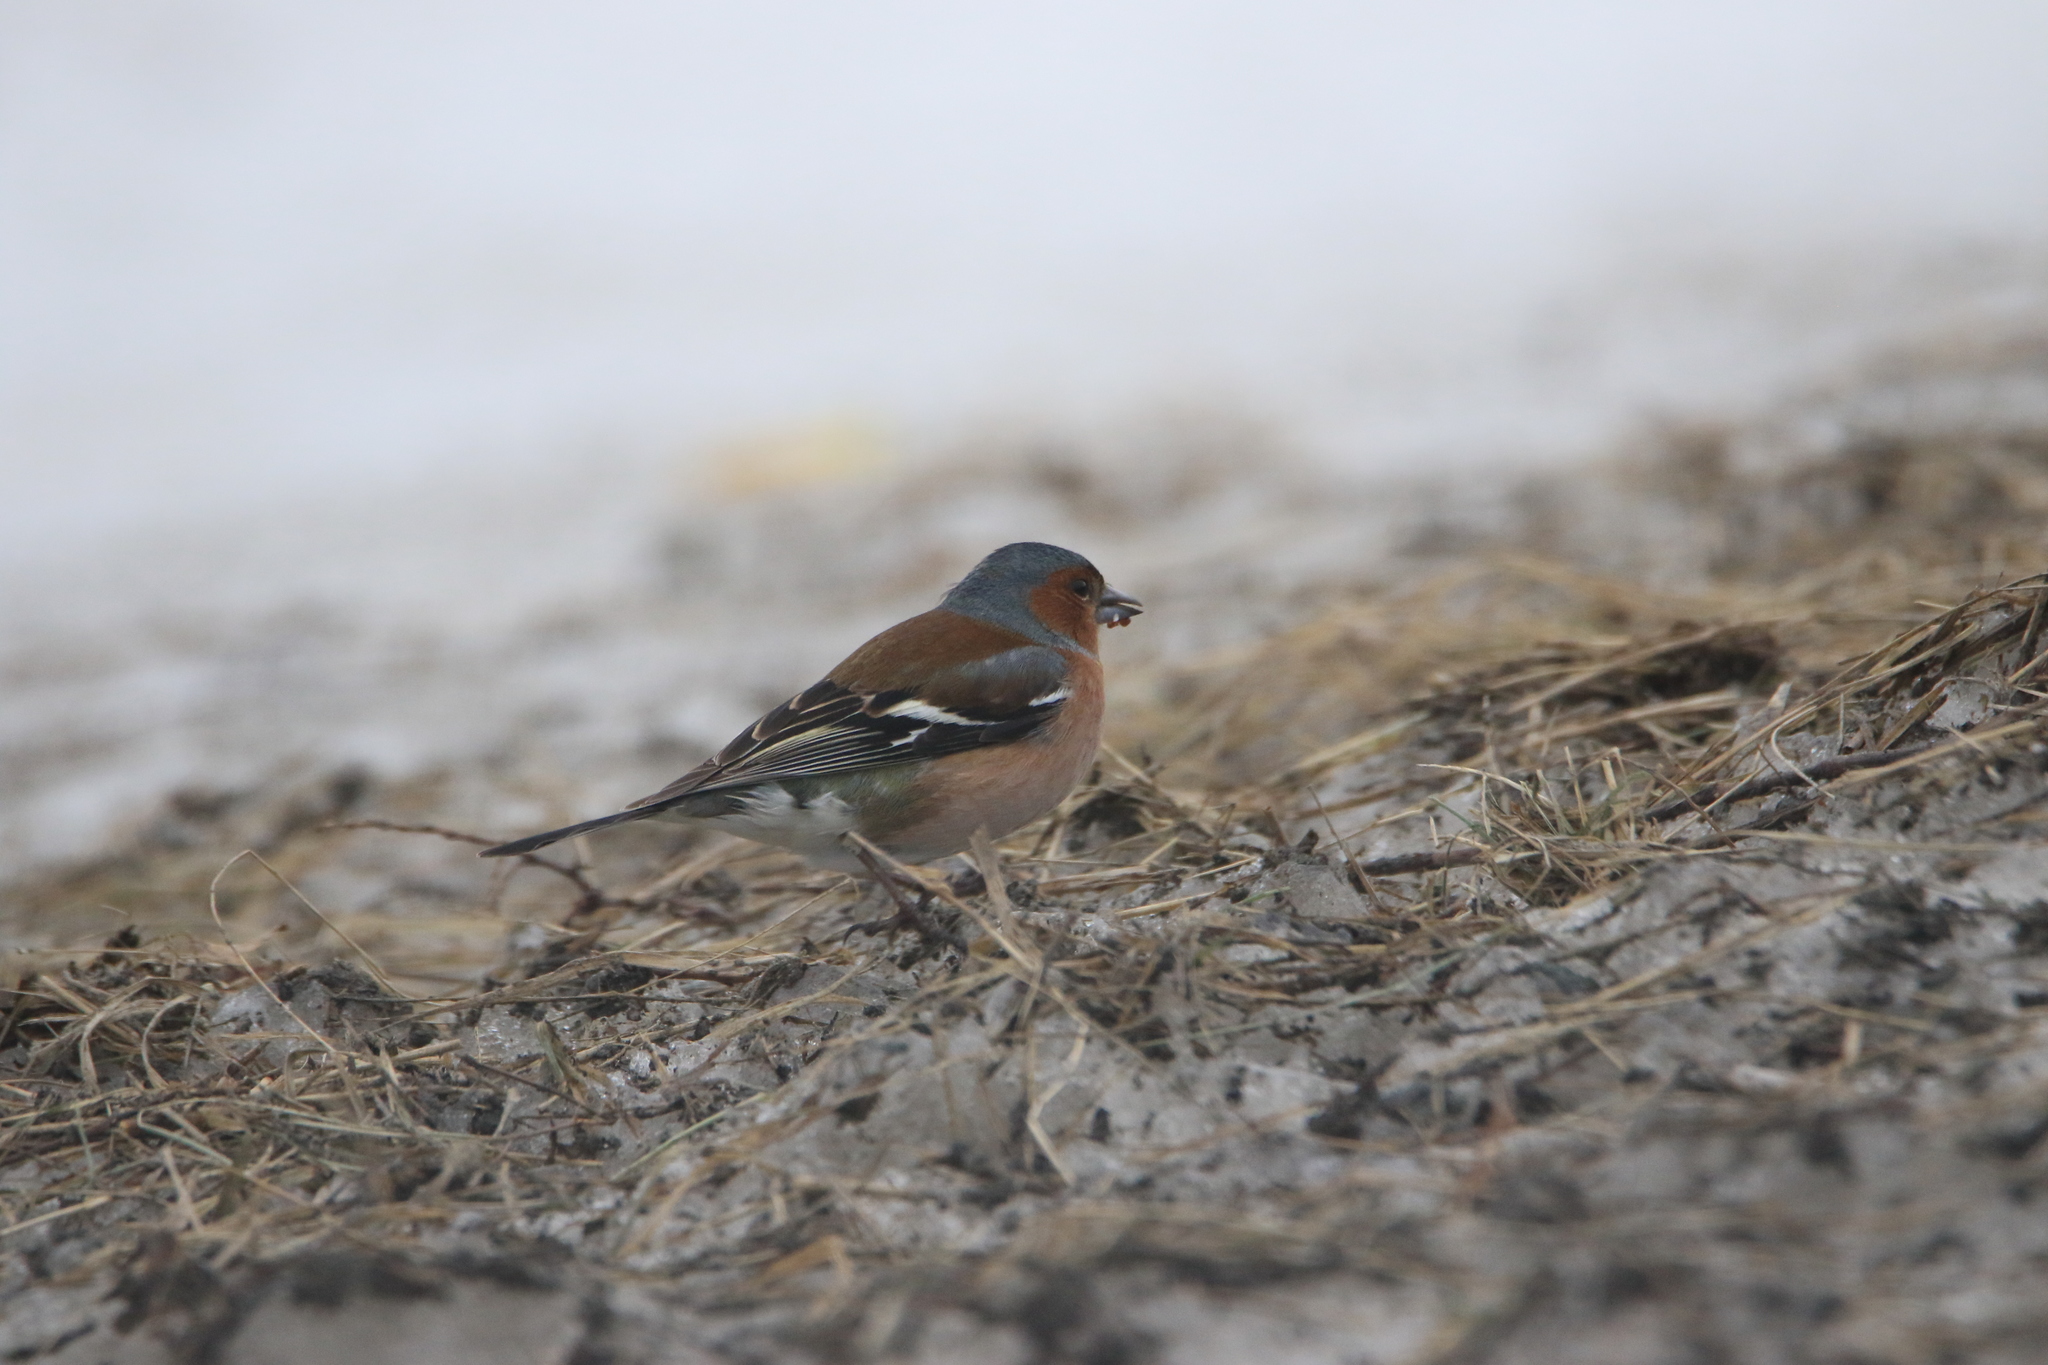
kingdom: Animalia
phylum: Chordata
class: Aves
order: Passeriformes
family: Fringillidae
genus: Fringilla
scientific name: Fringilla coelebs
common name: Common chaffinch
